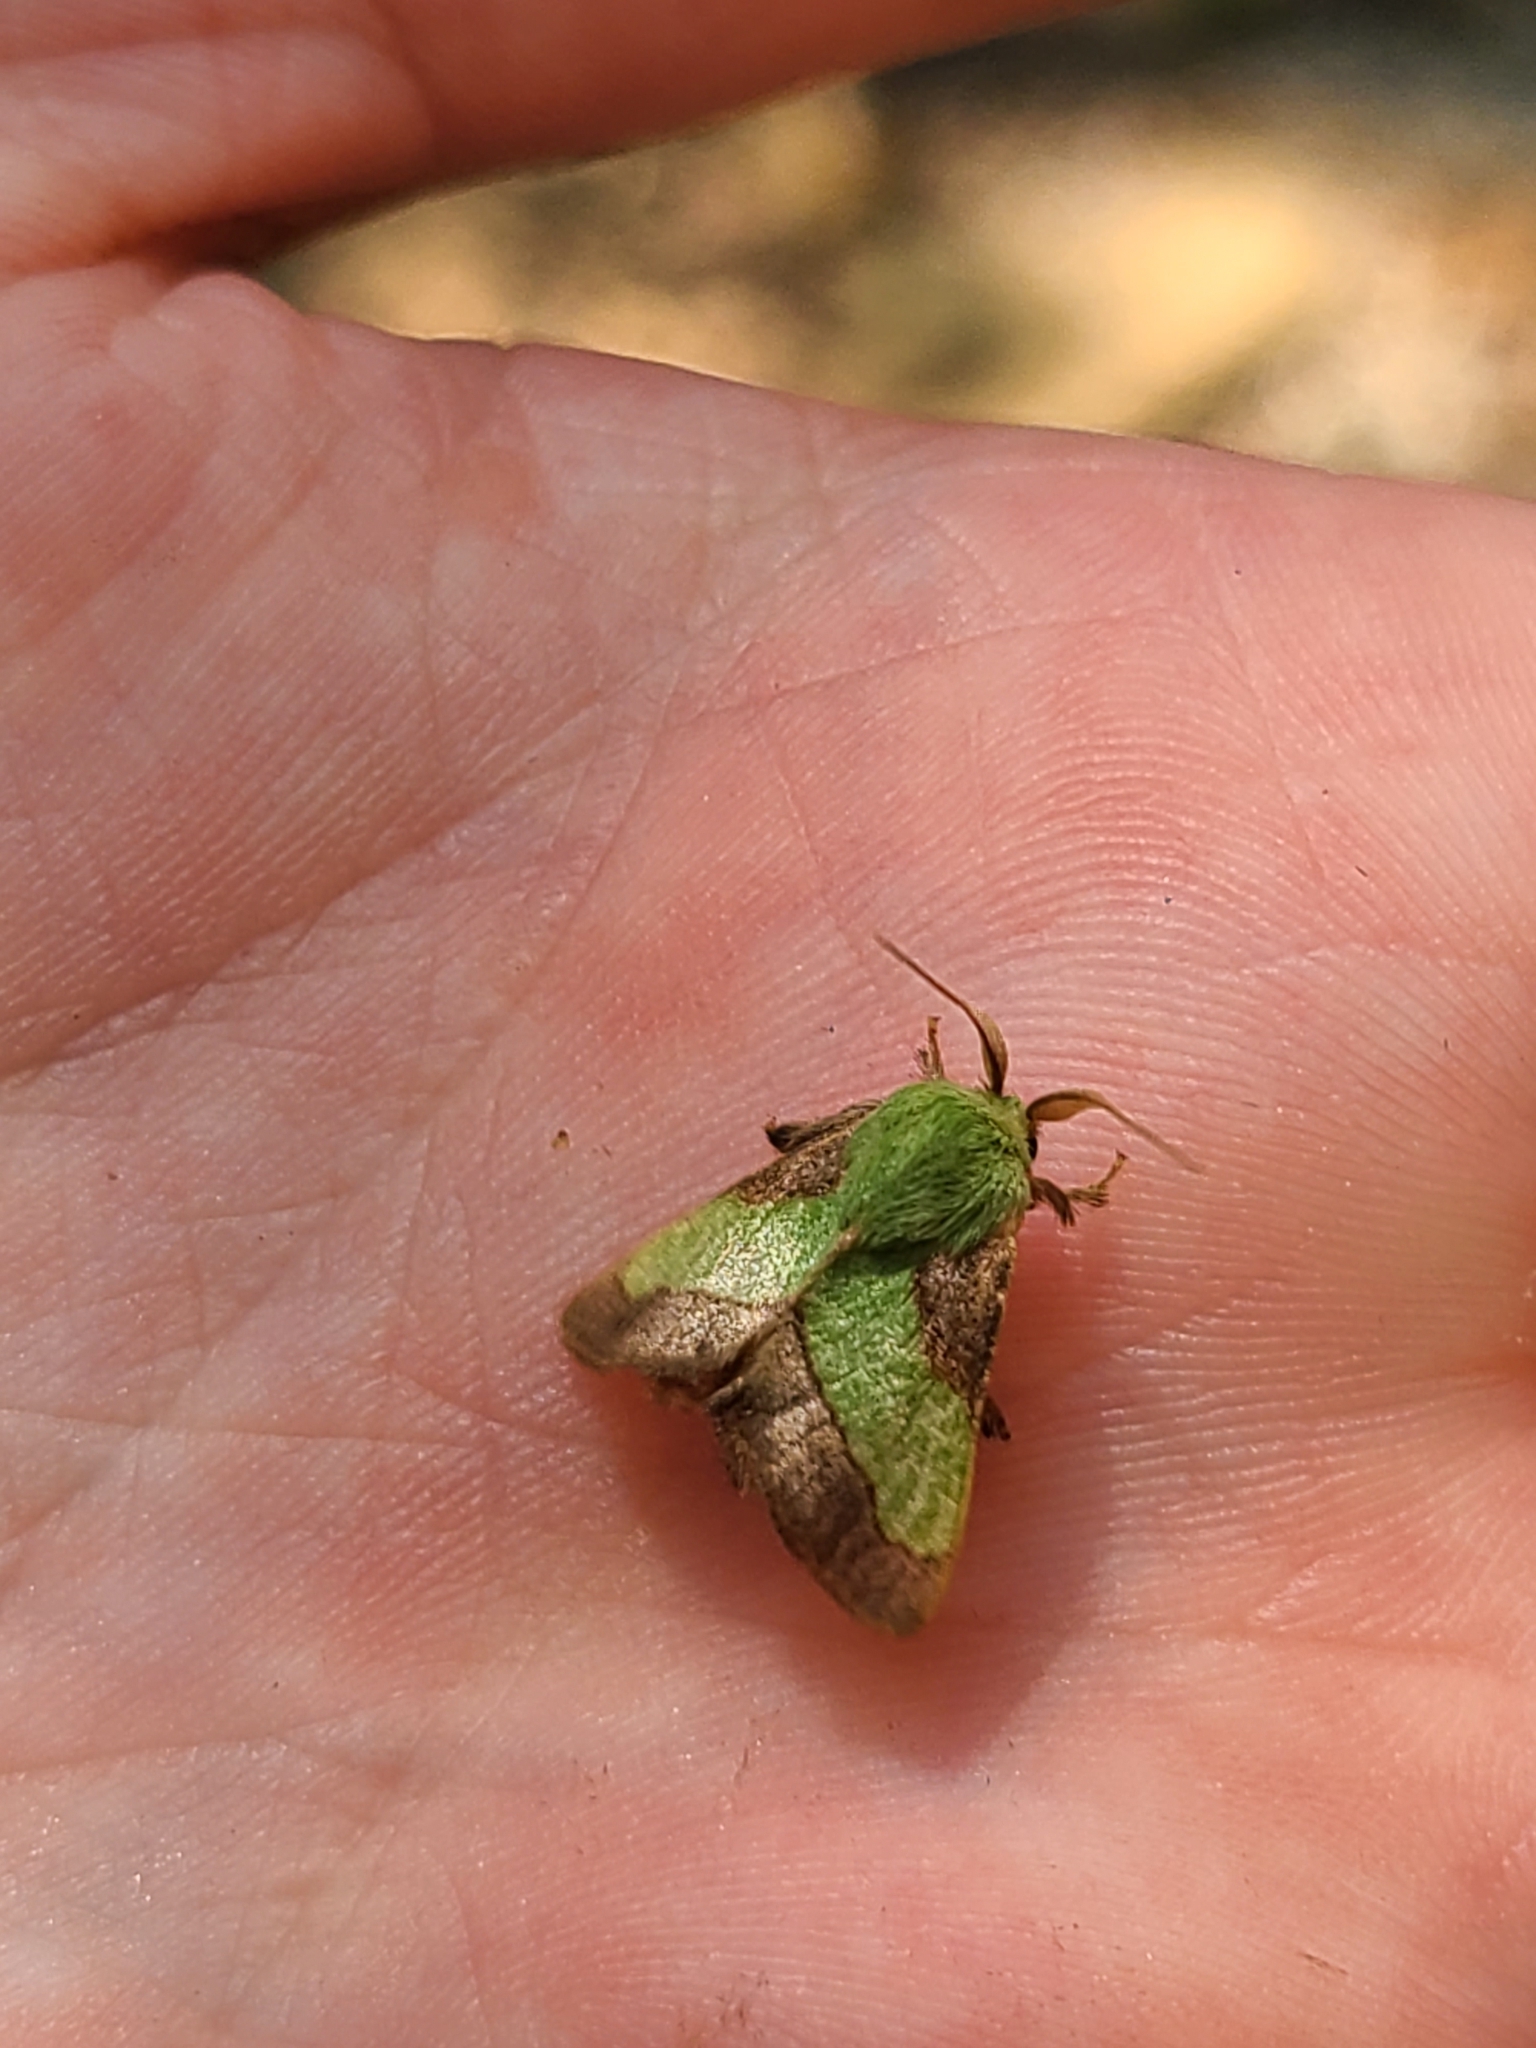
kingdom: Animalia
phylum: Arthropoda
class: Insecta
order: Lepidoptera
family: Limacodidae
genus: Parasa
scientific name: Parasa chloris
